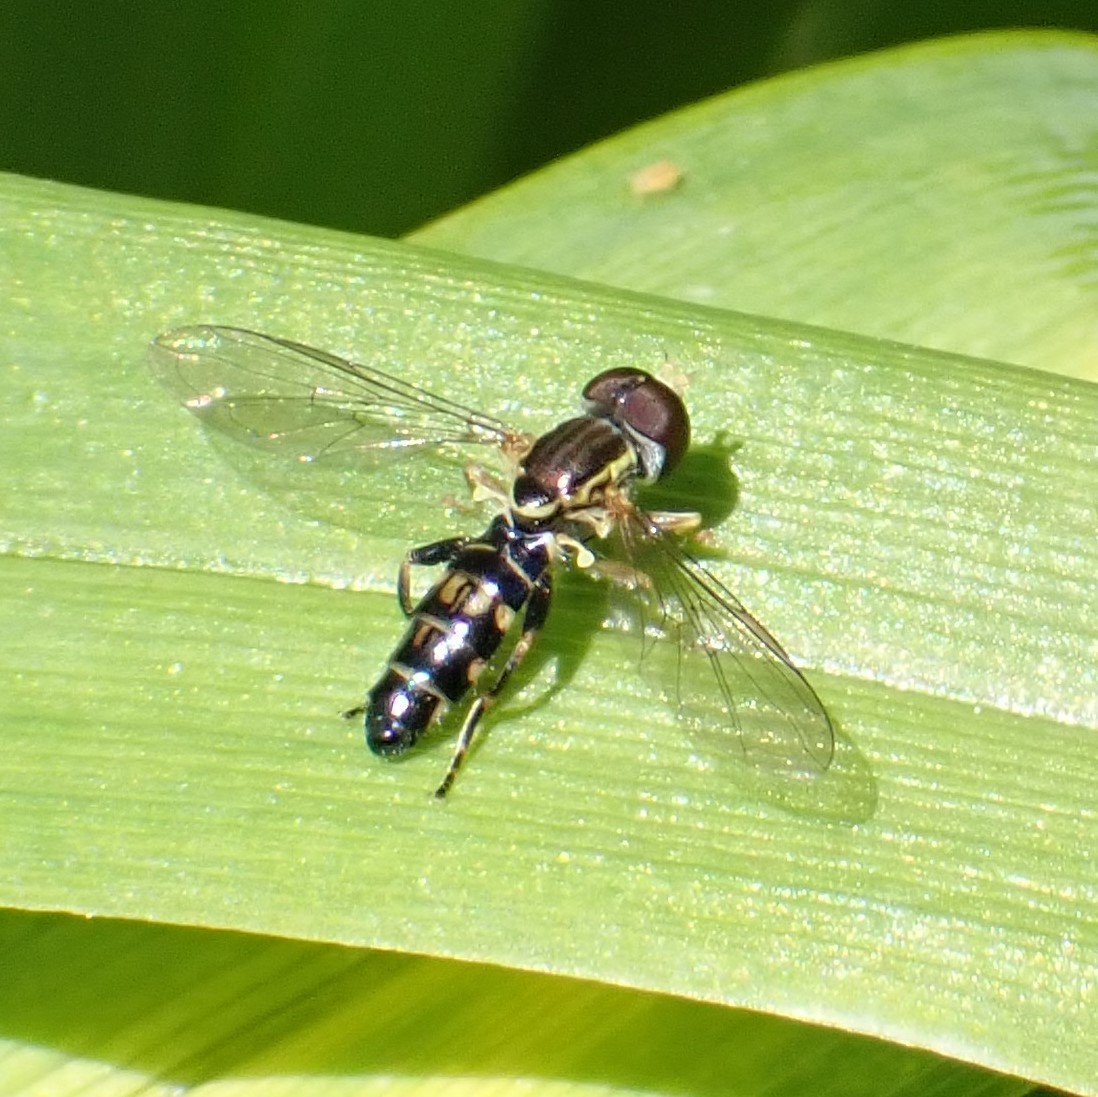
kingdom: Animalia
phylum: Arthropoda
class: Insecta
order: Diptera
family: Syrphidae
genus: Toxomerus
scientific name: Toxomerus geminatus
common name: Eastern calligrapher
